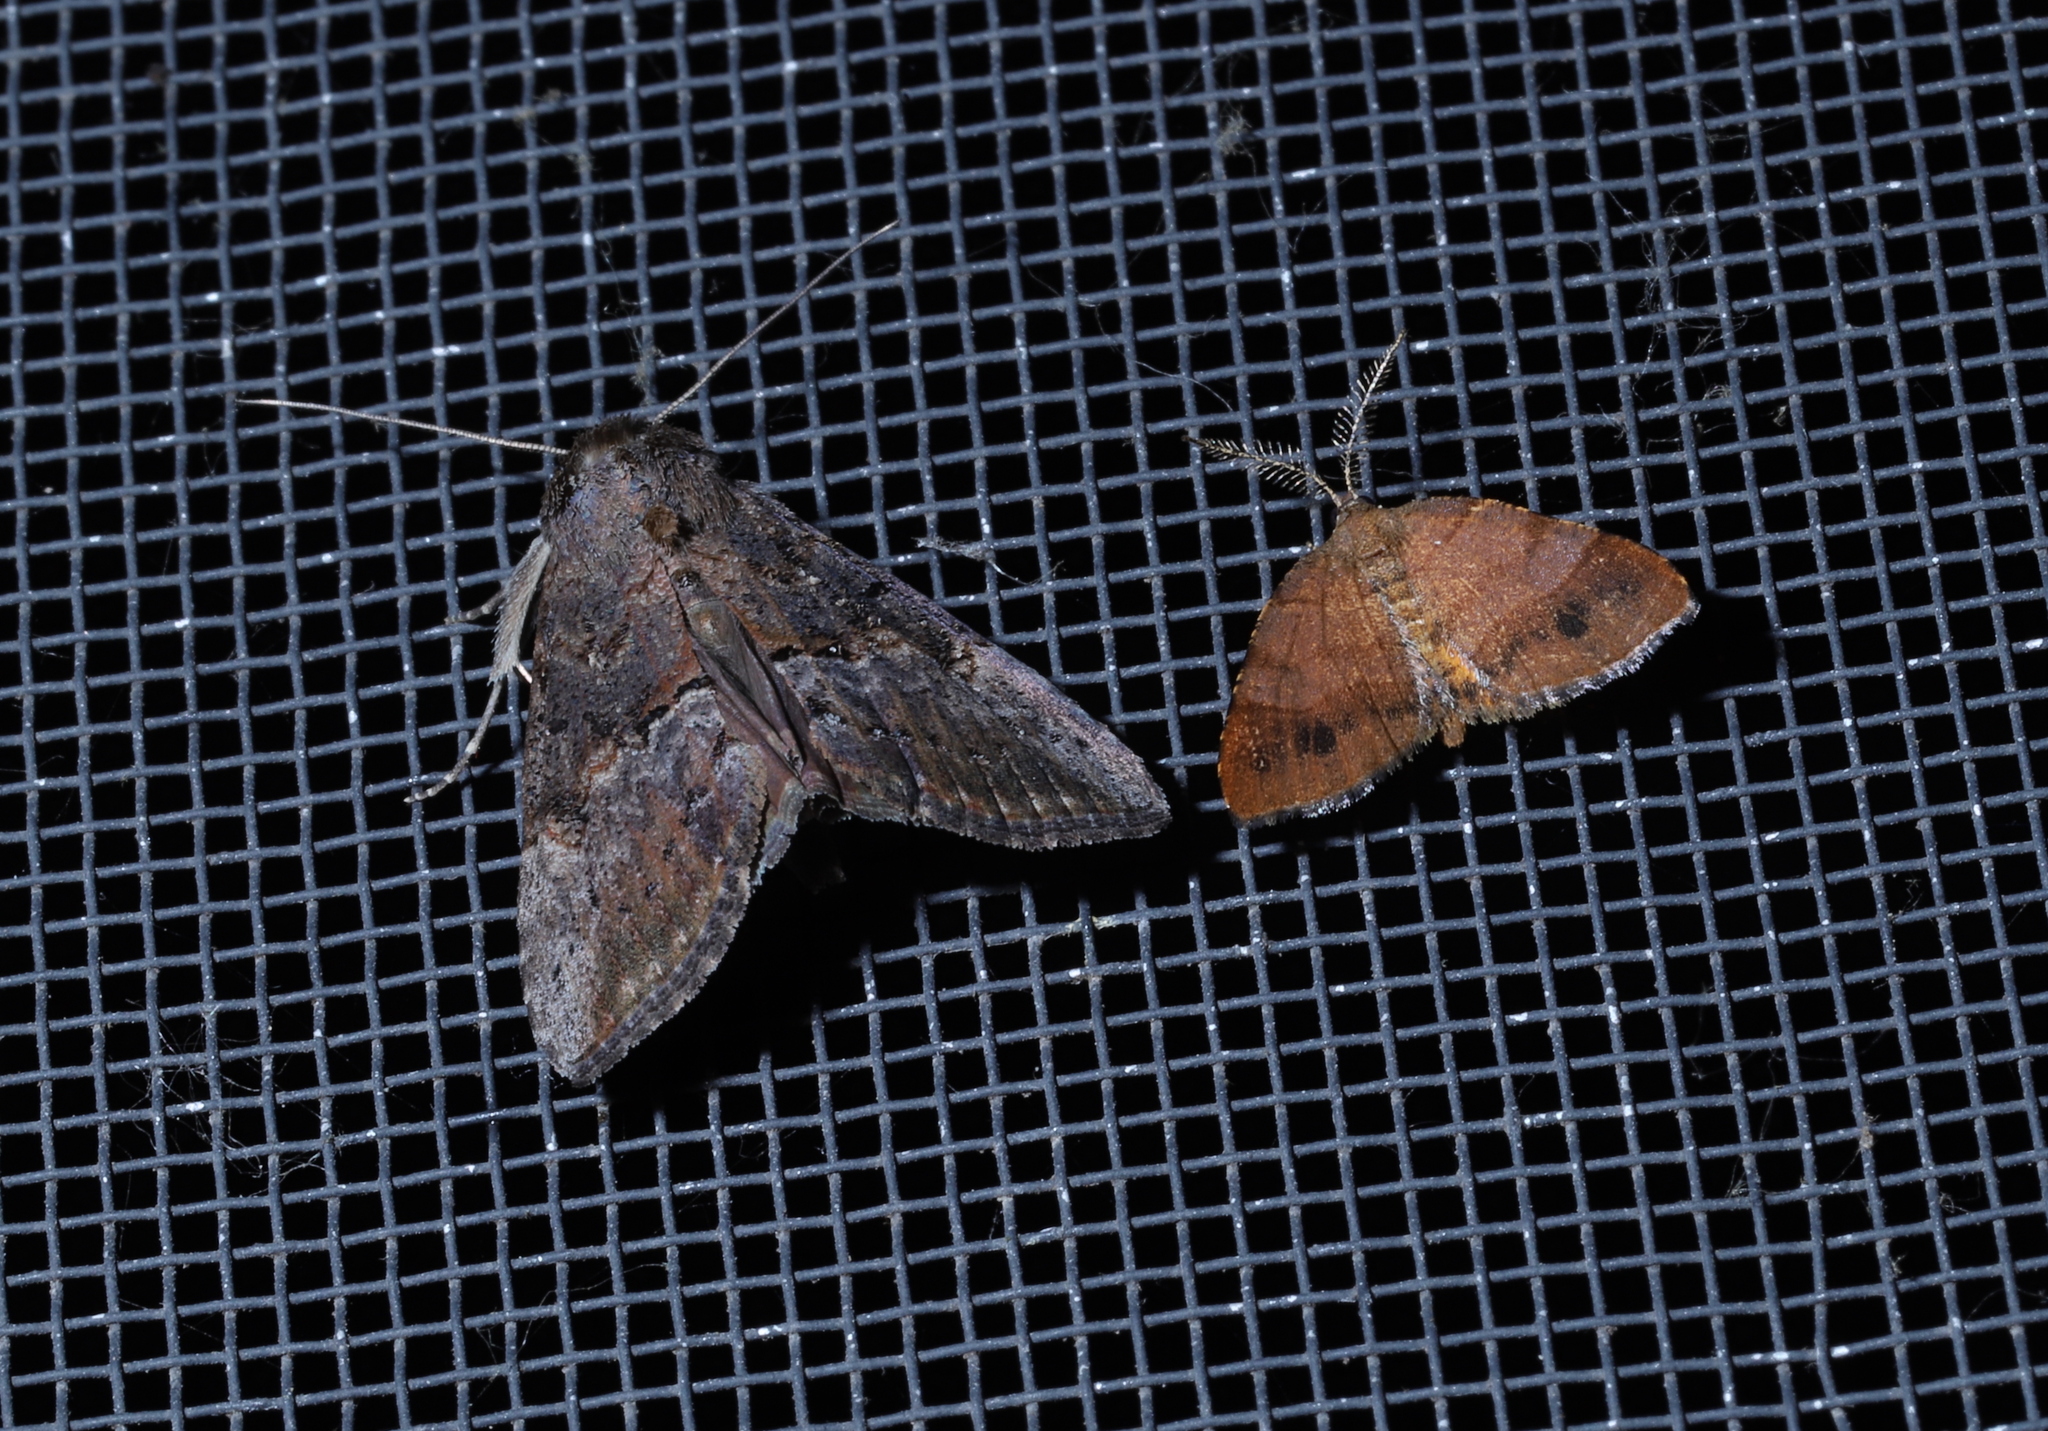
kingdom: Animalia
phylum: Arthropoda
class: Insecta
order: Lepidoptera
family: Erebidae
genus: Hypena
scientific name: Hypena scabra
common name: Green cloverworm
